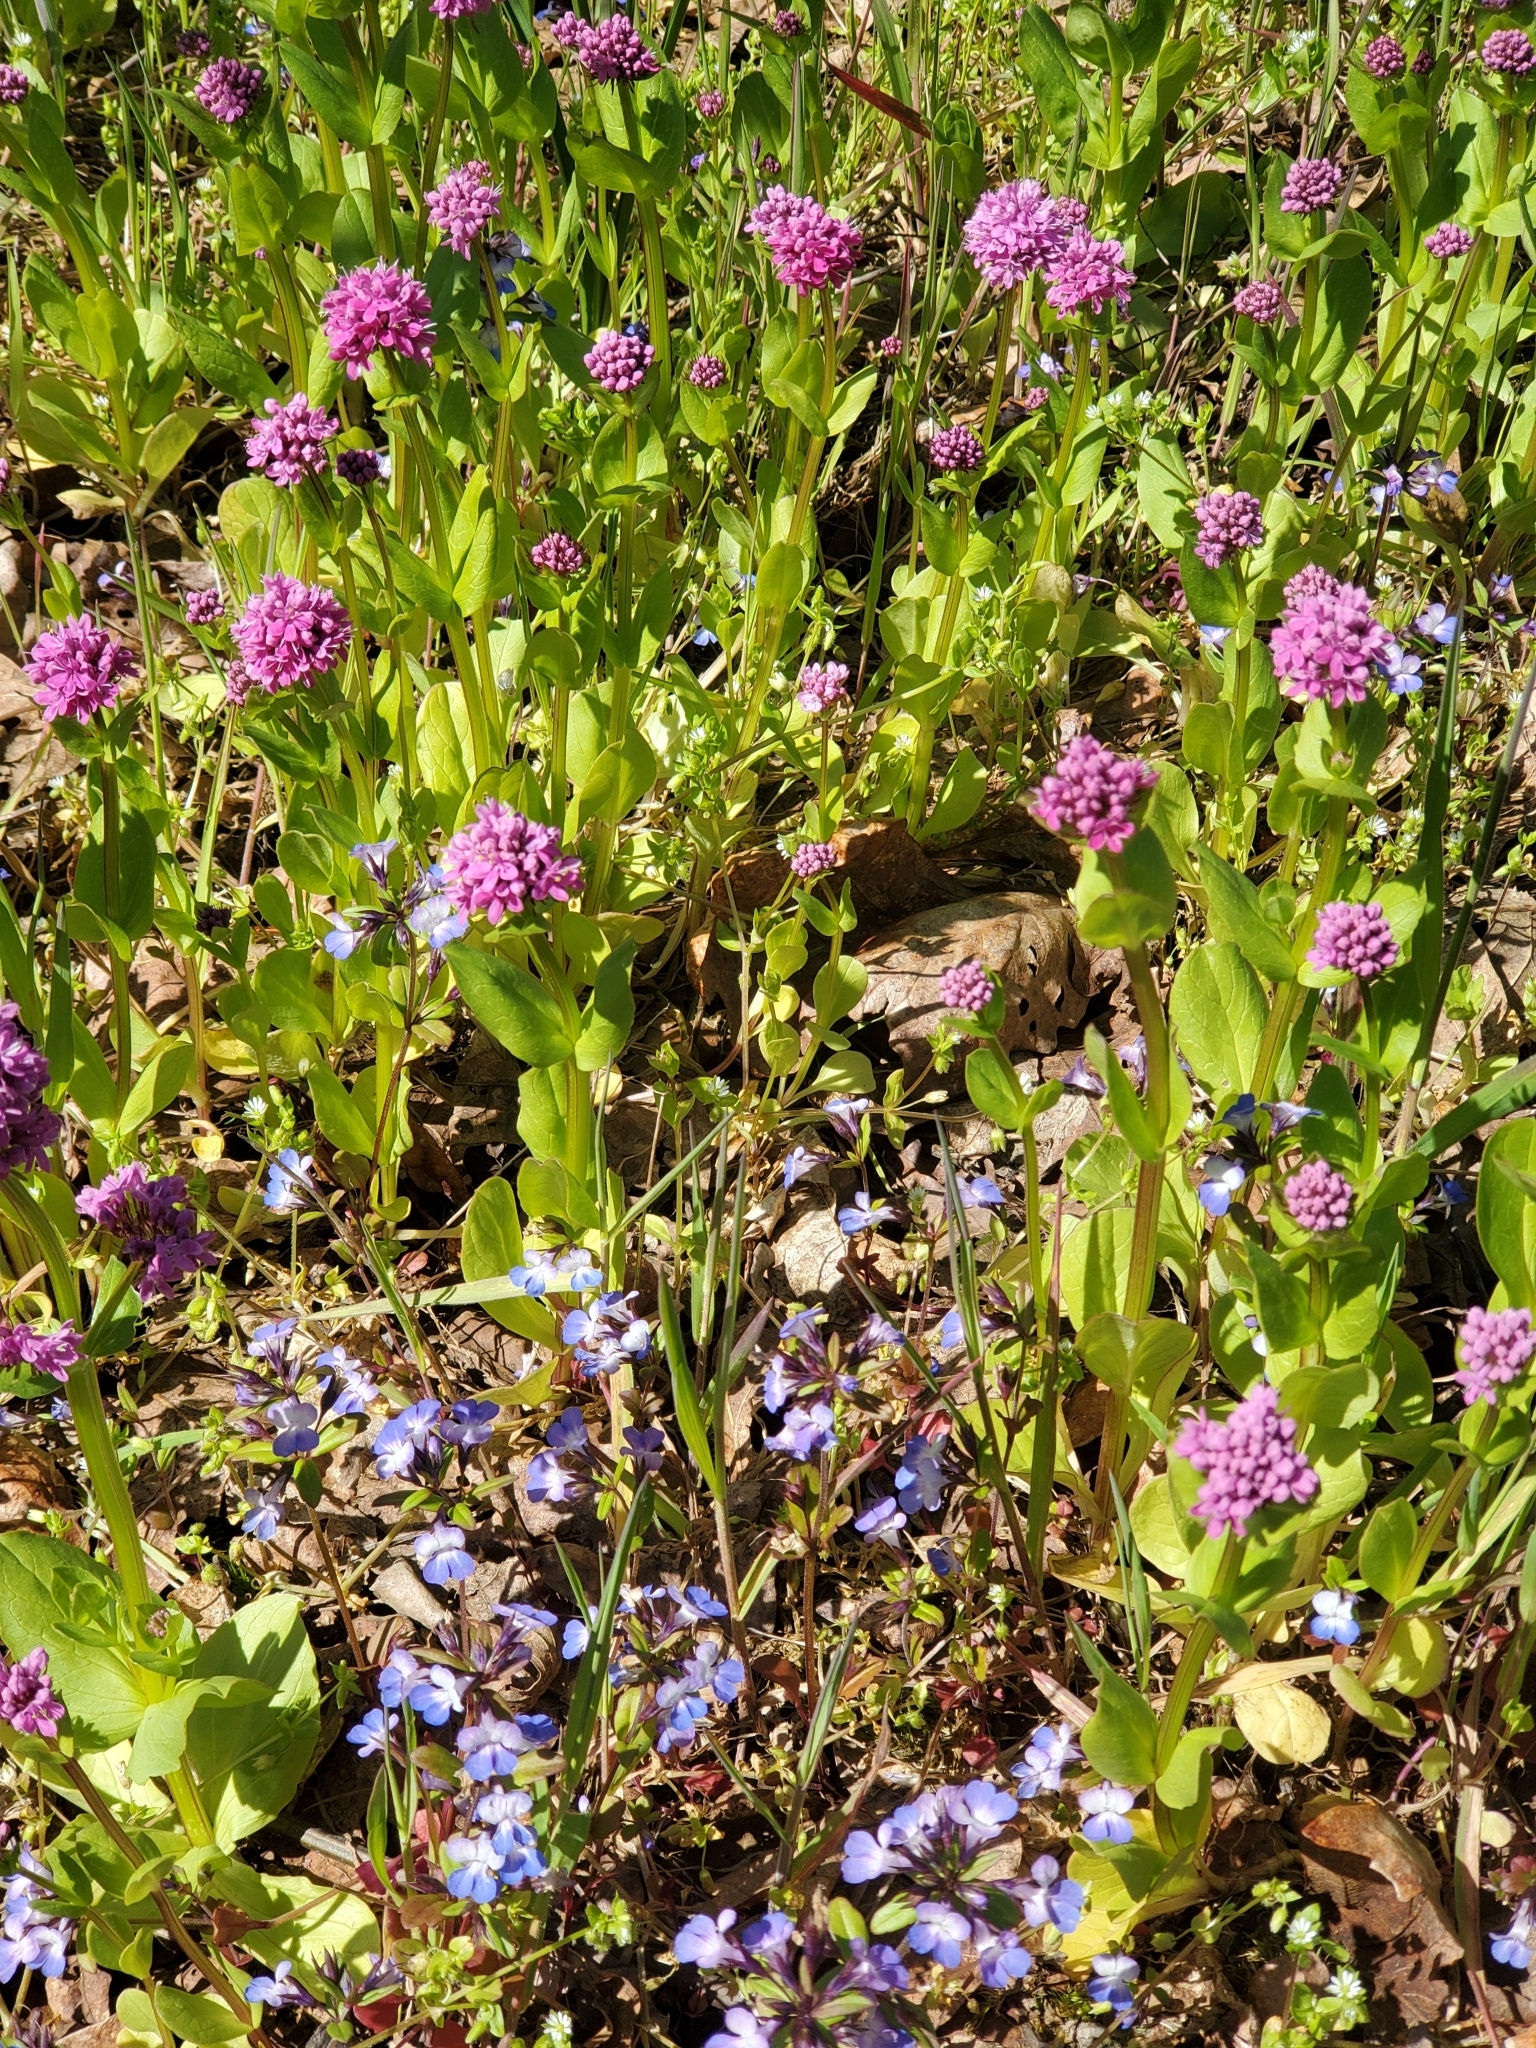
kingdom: Plantae
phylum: Tracheophyta
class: Magnoliopsida
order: Dipsacales
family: Caprifoliaceae
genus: Plectritis
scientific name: Plectritis congesta
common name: Pink plectritis
